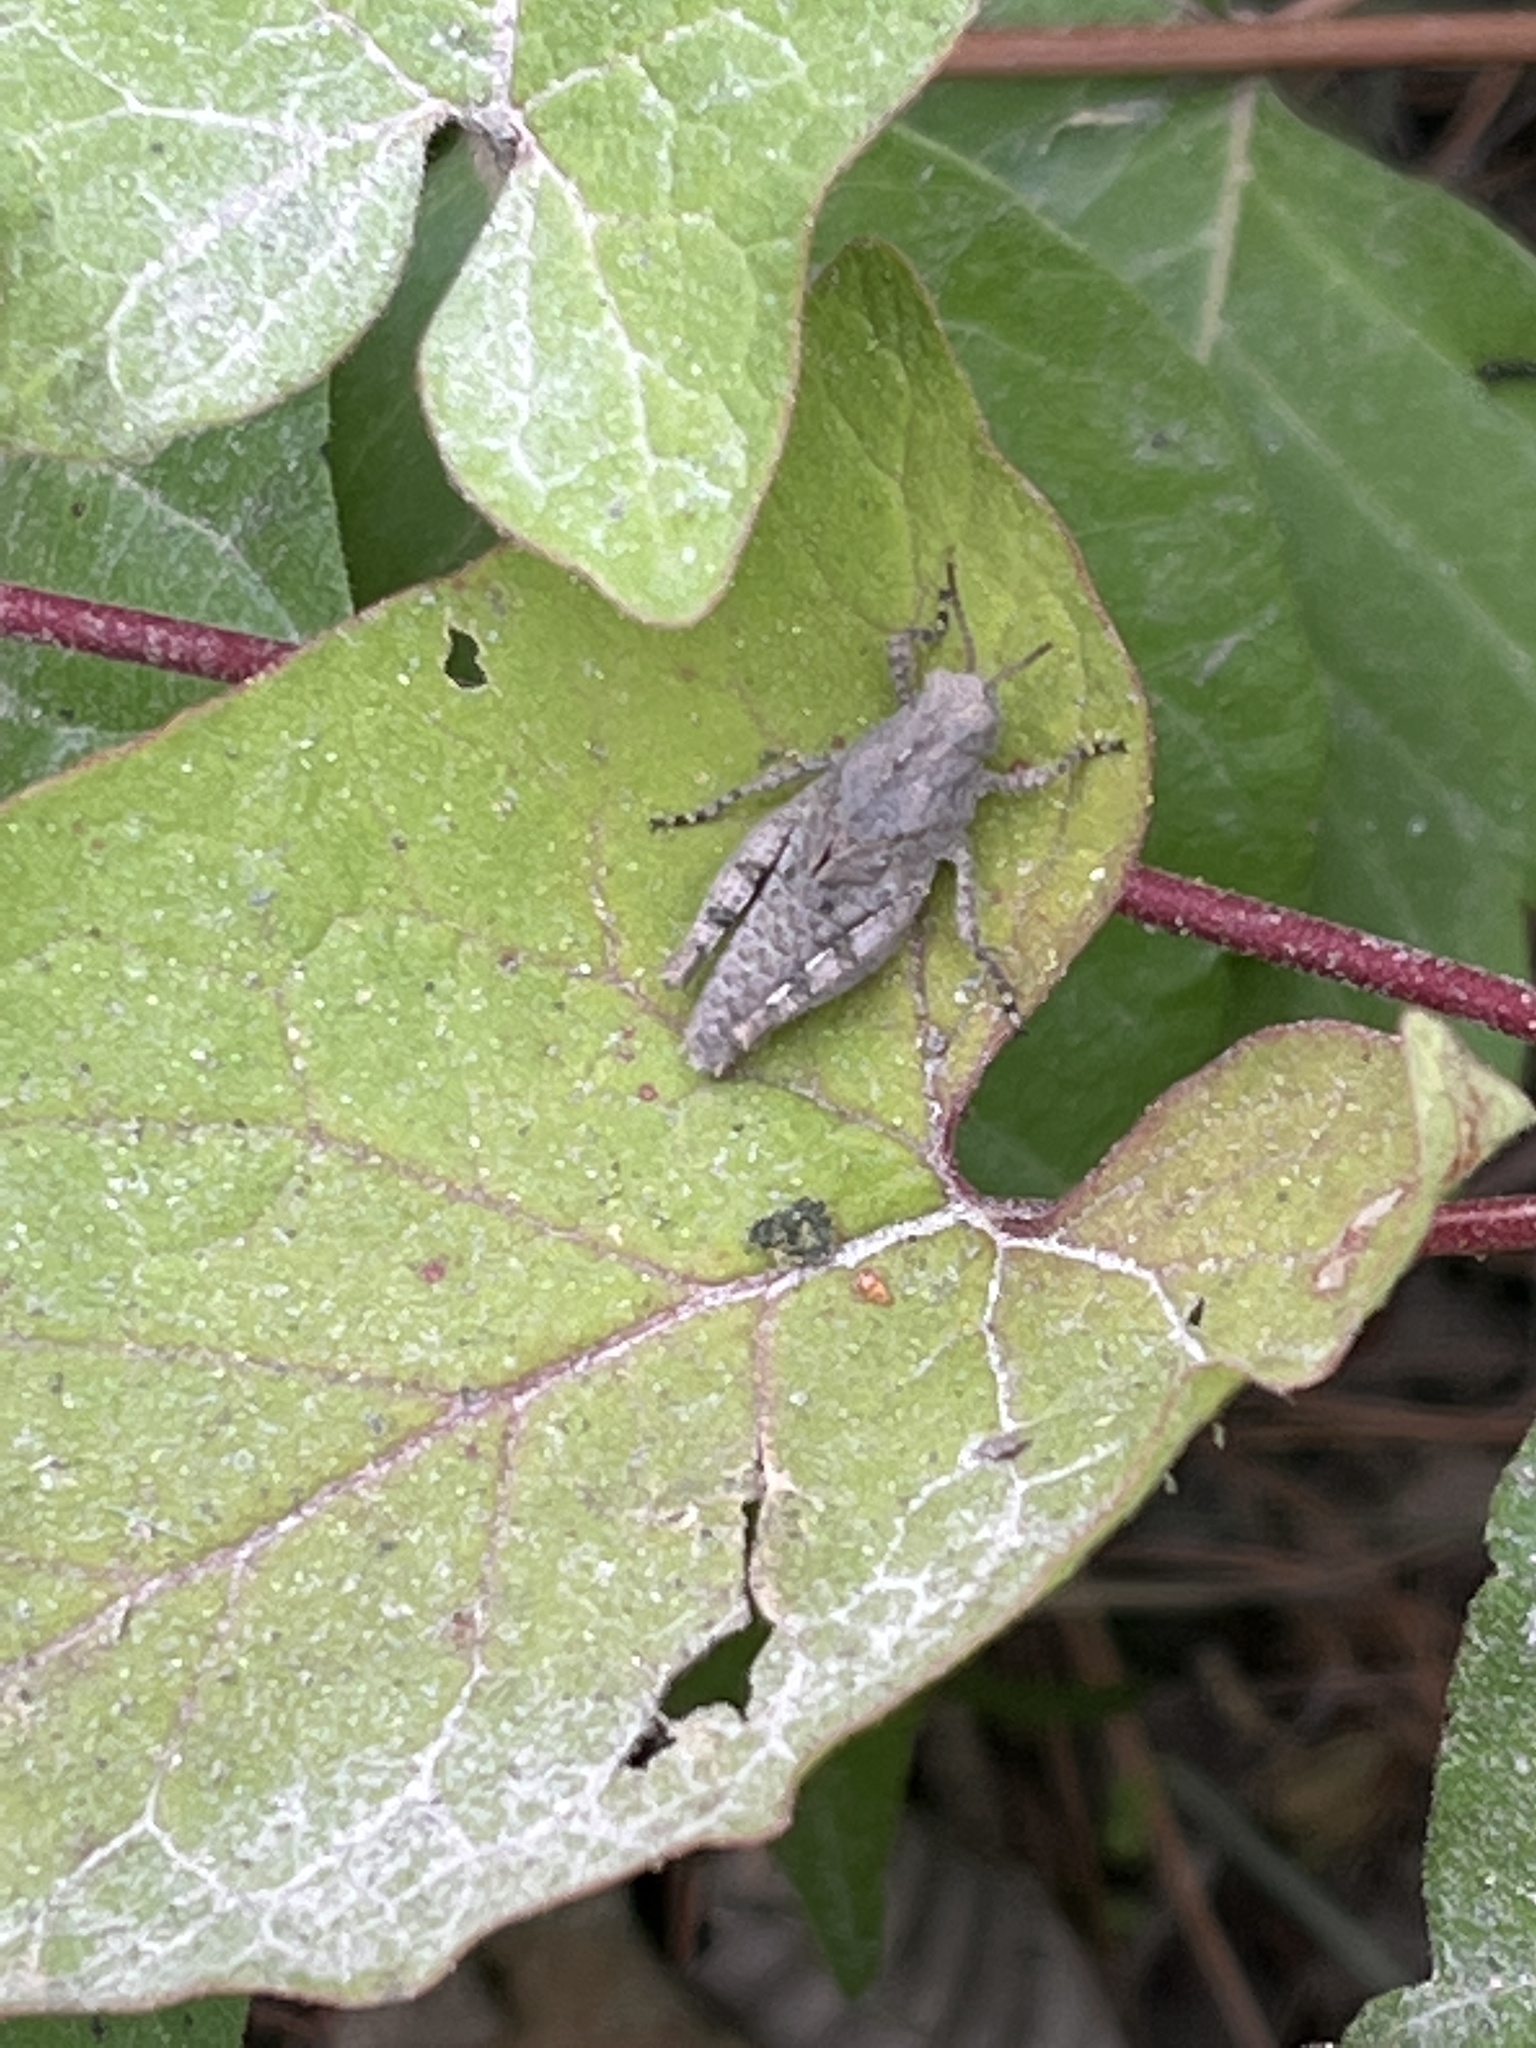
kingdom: Animalia
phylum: Arthropoda
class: Insecta
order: Orthoptera
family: Acrididae
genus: Dissosteira
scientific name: Dissosteira carolina
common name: Carolina grasshopper
